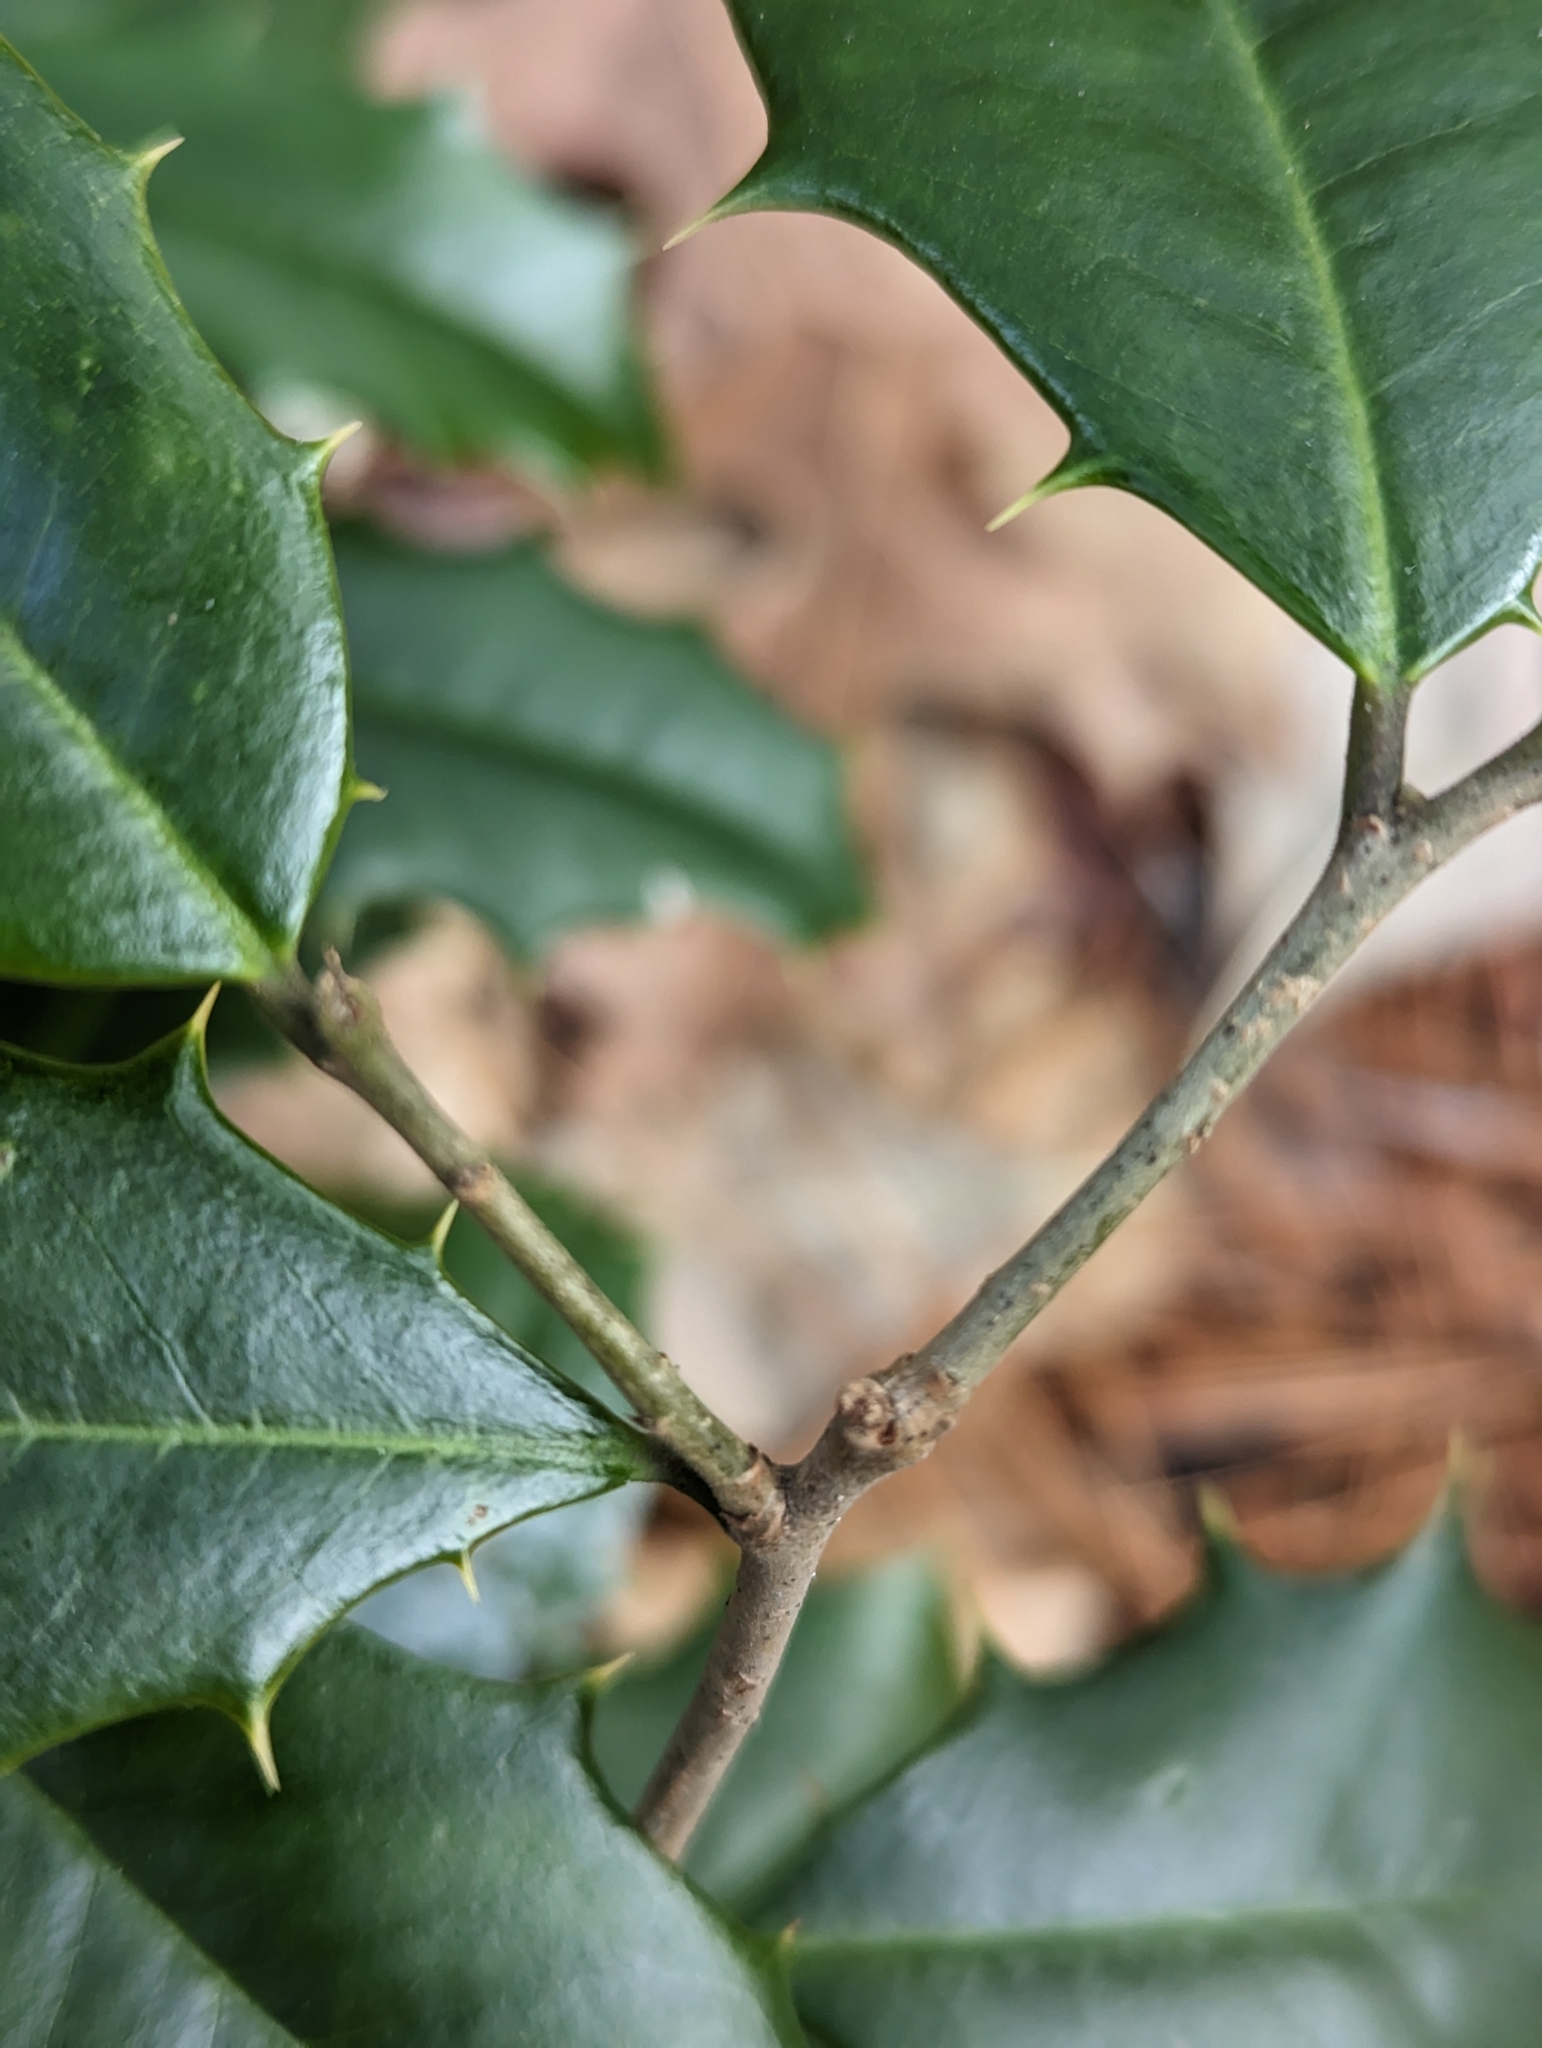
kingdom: Plantae
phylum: Tracheophyta
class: Magnoliopsida
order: Aquifoliales
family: Aquifoliaceae
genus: Ilex
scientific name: Ilex opaca
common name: American holly
